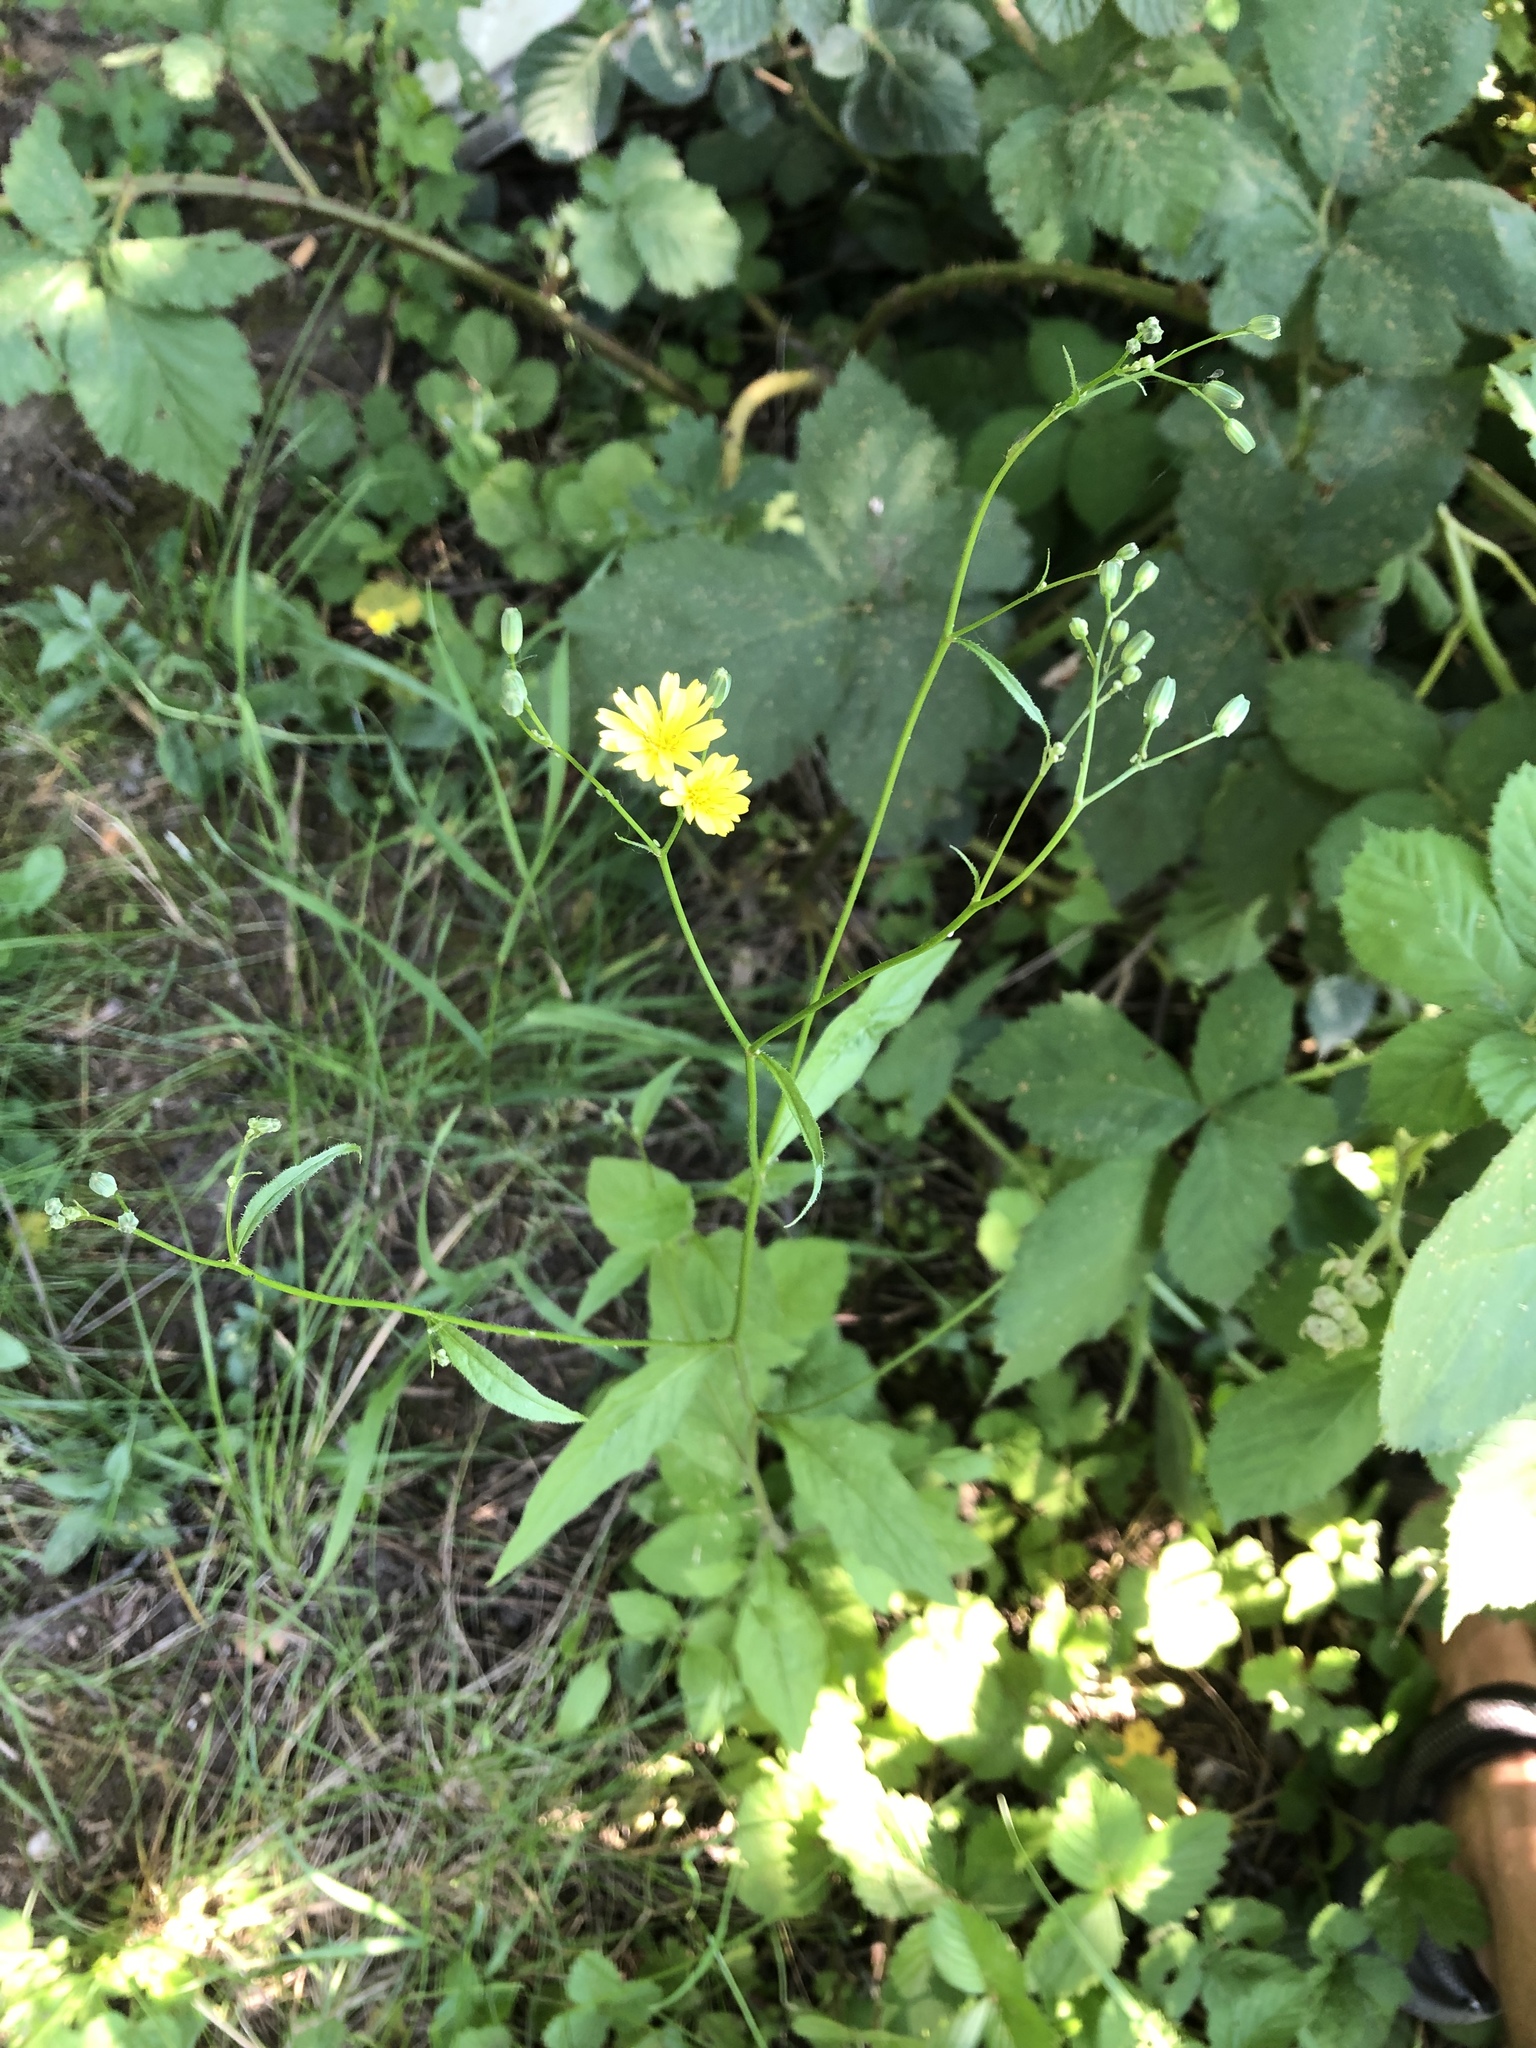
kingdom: Plantae
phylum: Tracheophyta
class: Magnoliopsida
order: Asterales
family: Asteraceae
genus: Lapsana
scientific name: Lapsana communis
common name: Nipplewort
